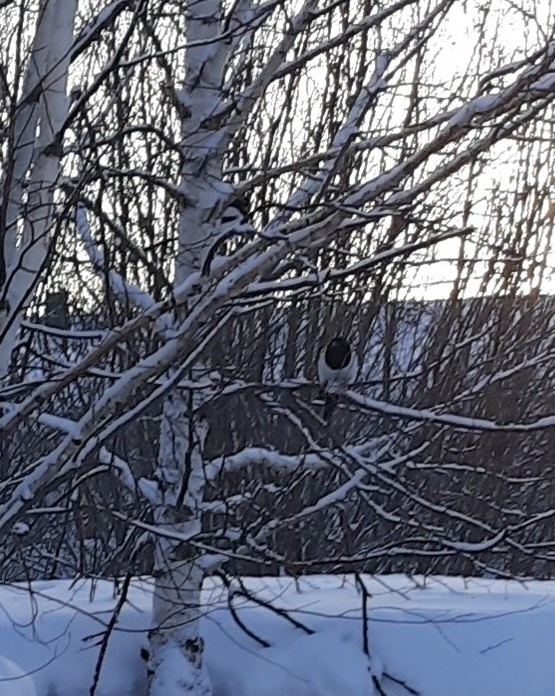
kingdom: Animalia
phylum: Chordata
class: Aves
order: Passeriformes
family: Corvidae
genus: Pica
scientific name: Pica pica
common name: Eurasian magpie
